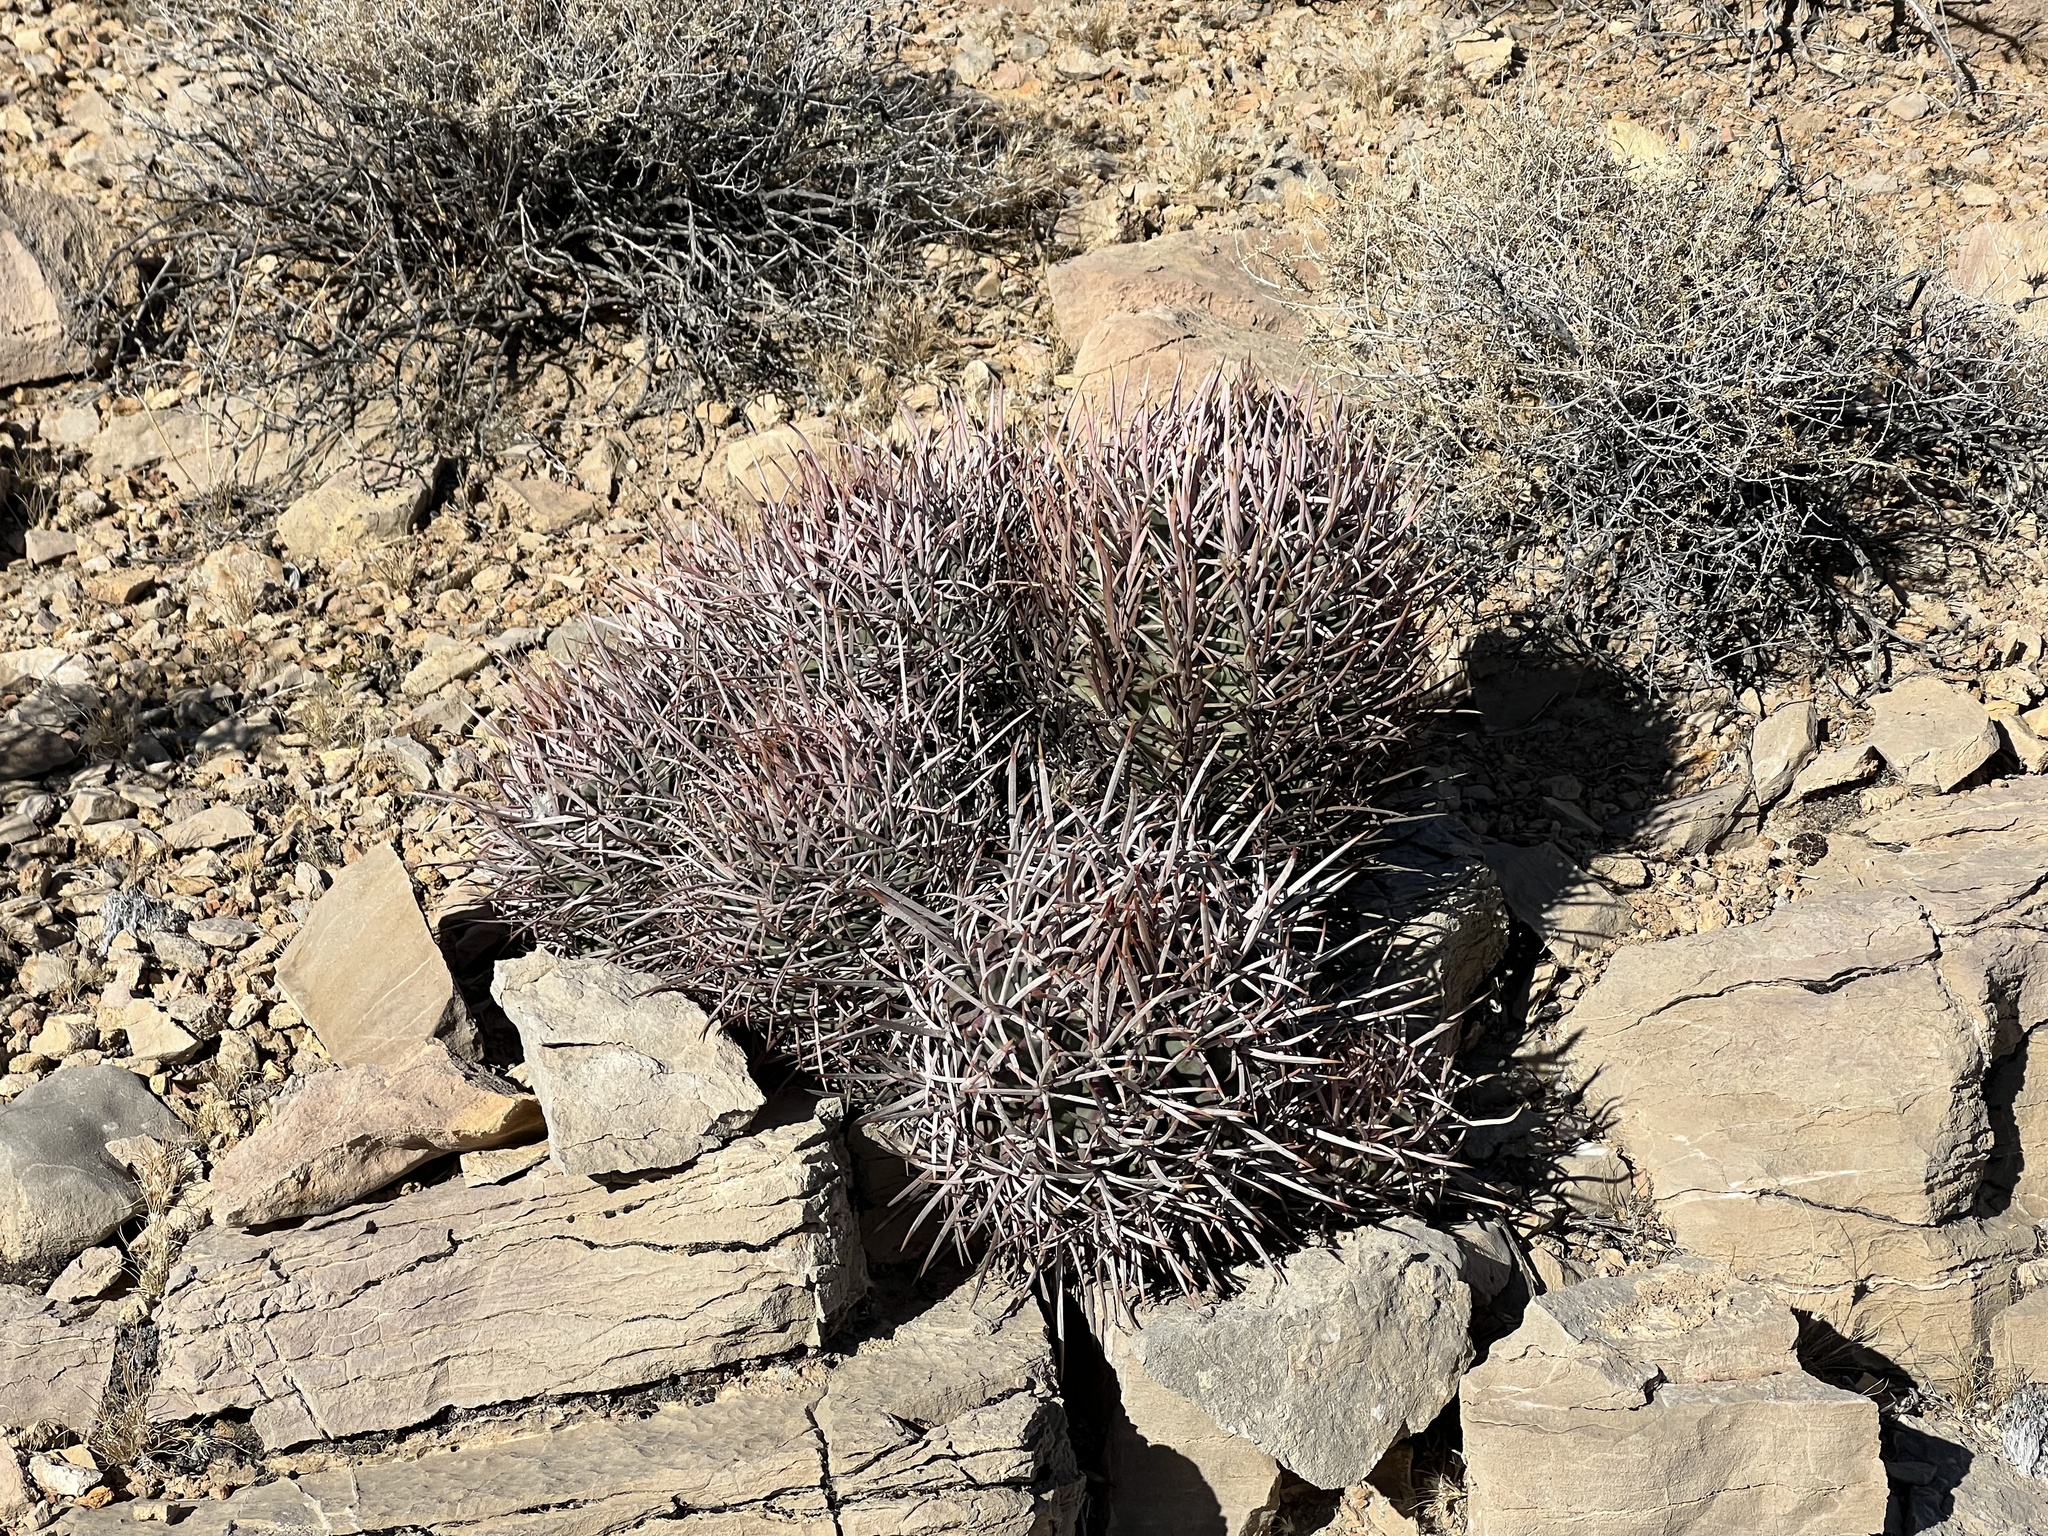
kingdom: Plantae
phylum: Tracheophyta
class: Magnoliopsida
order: Caryophyllales
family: Cactaceae
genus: Echinocactus
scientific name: Echinocactus polycephalus
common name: Cottontop cactus
